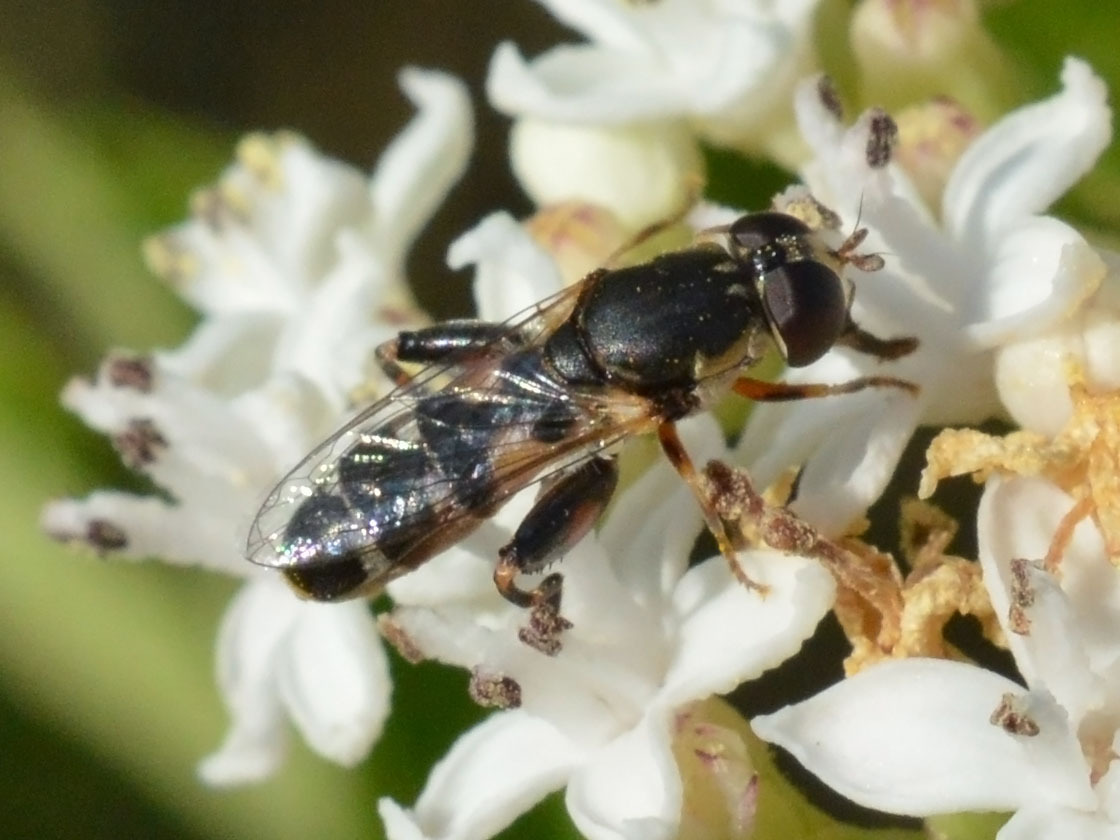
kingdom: Animalia
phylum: Arthropoda
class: Insecta
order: Diptera
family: Syrphidae
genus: Syritta
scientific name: Syritta pipiens
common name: Hover fly
